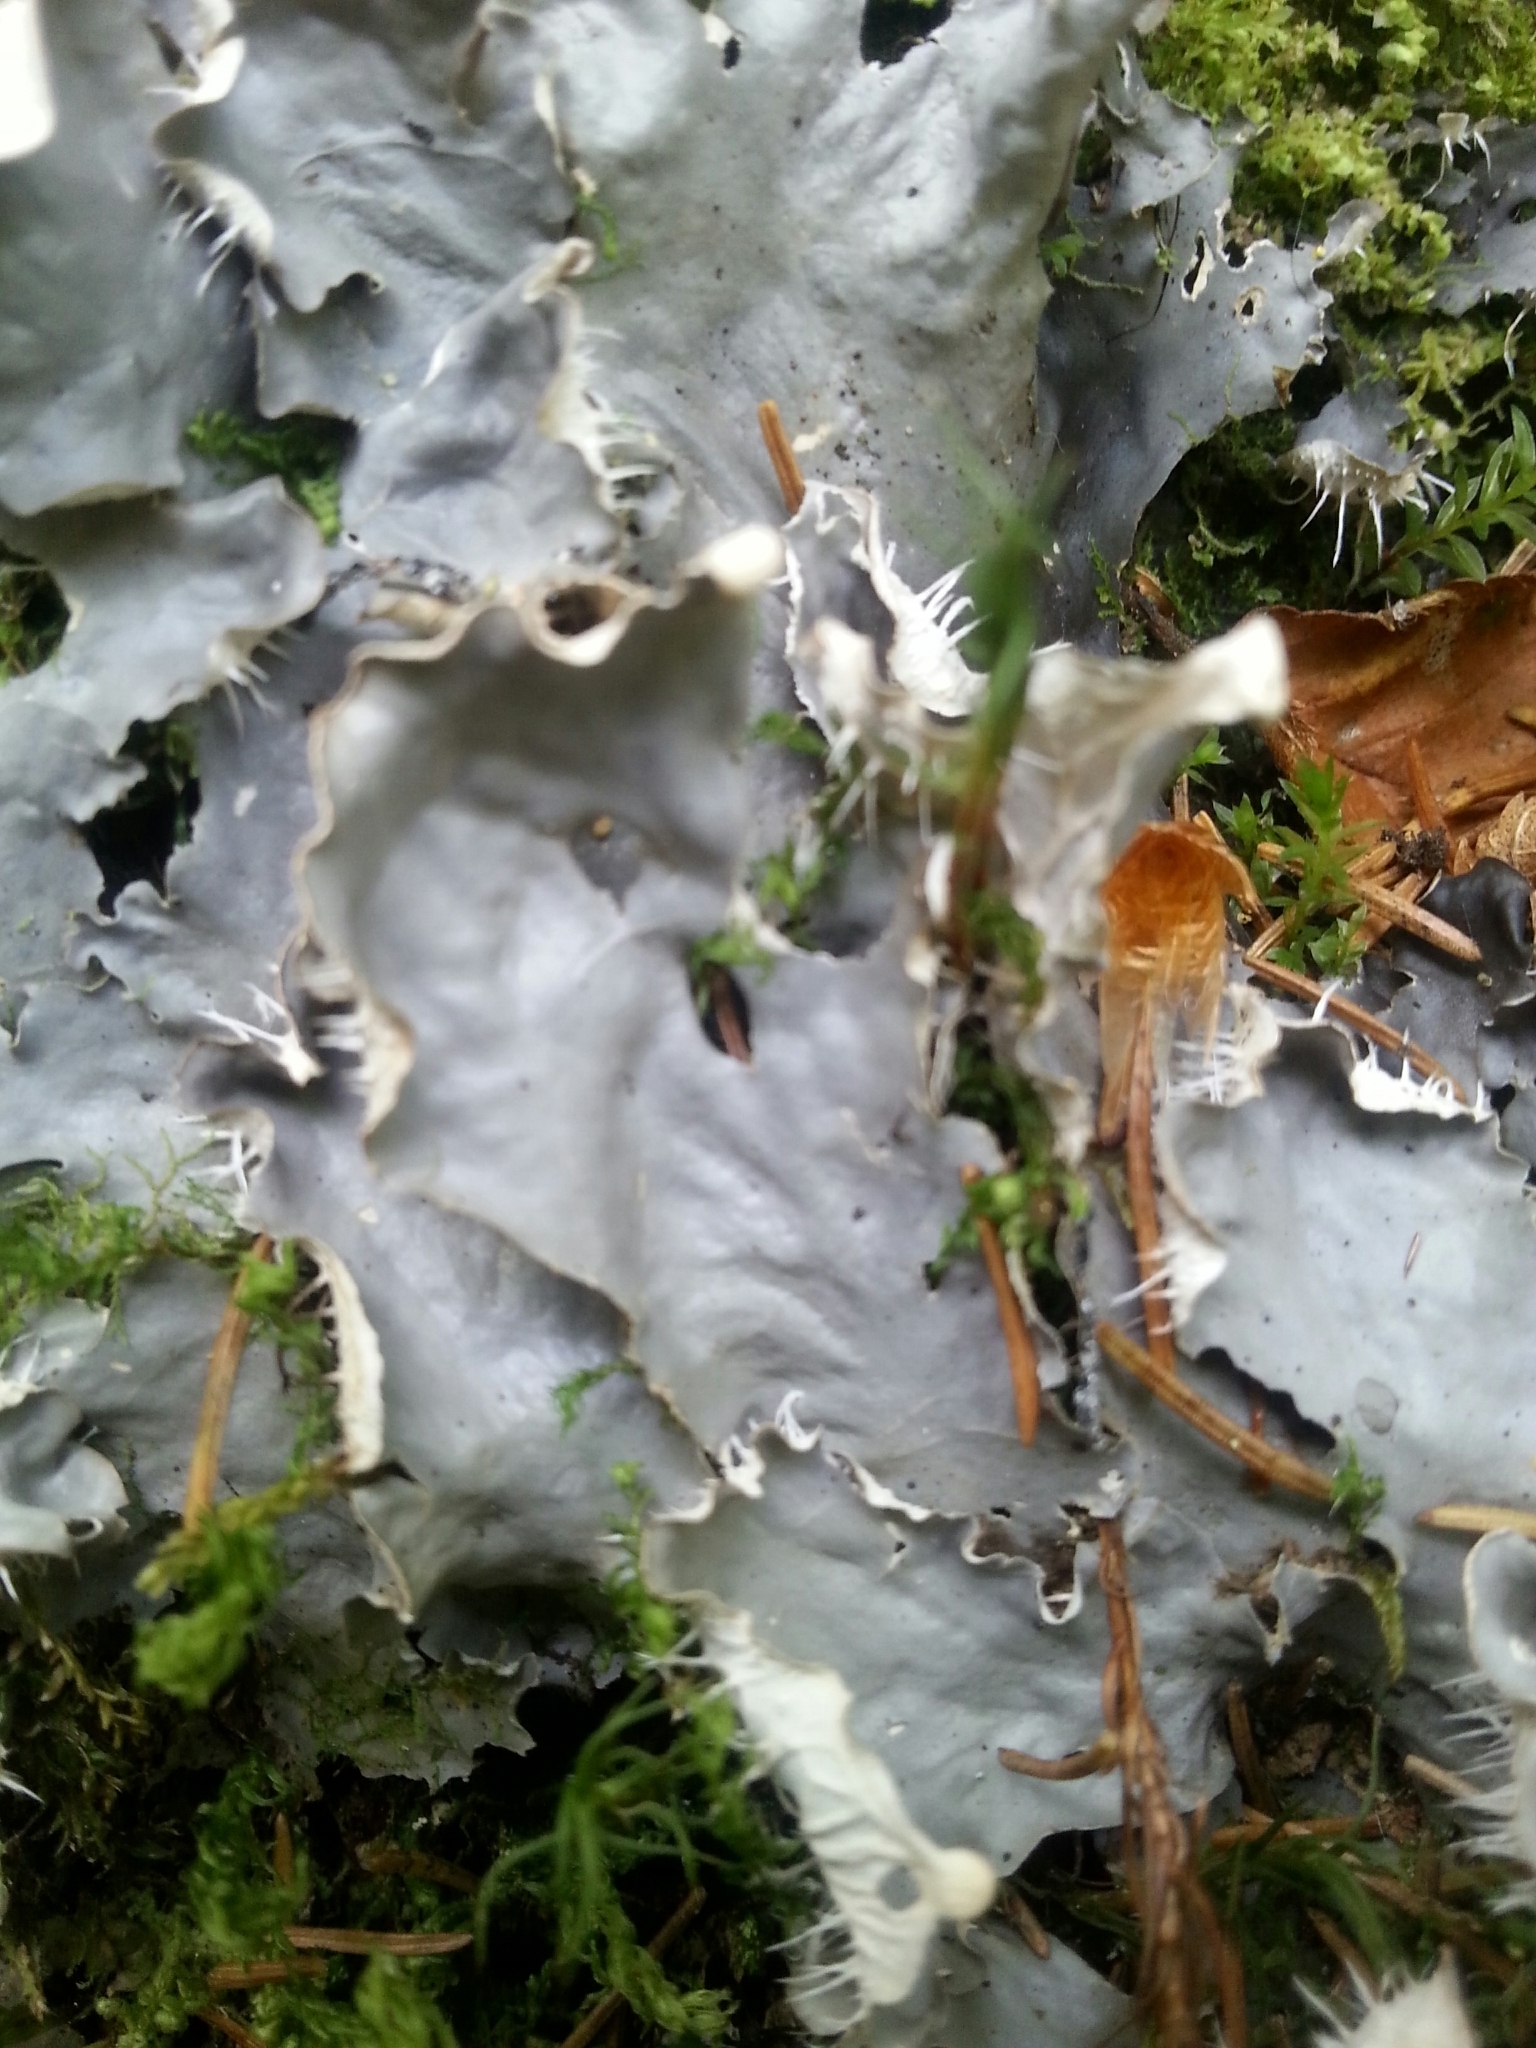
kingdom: Fungi
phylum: Ascomycota
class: Lecanoromycetes
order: Peltigerales
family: Peltigeraceae
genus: Peltigera
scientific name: Peltigera neopolydactyla
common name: Carpet pelt
